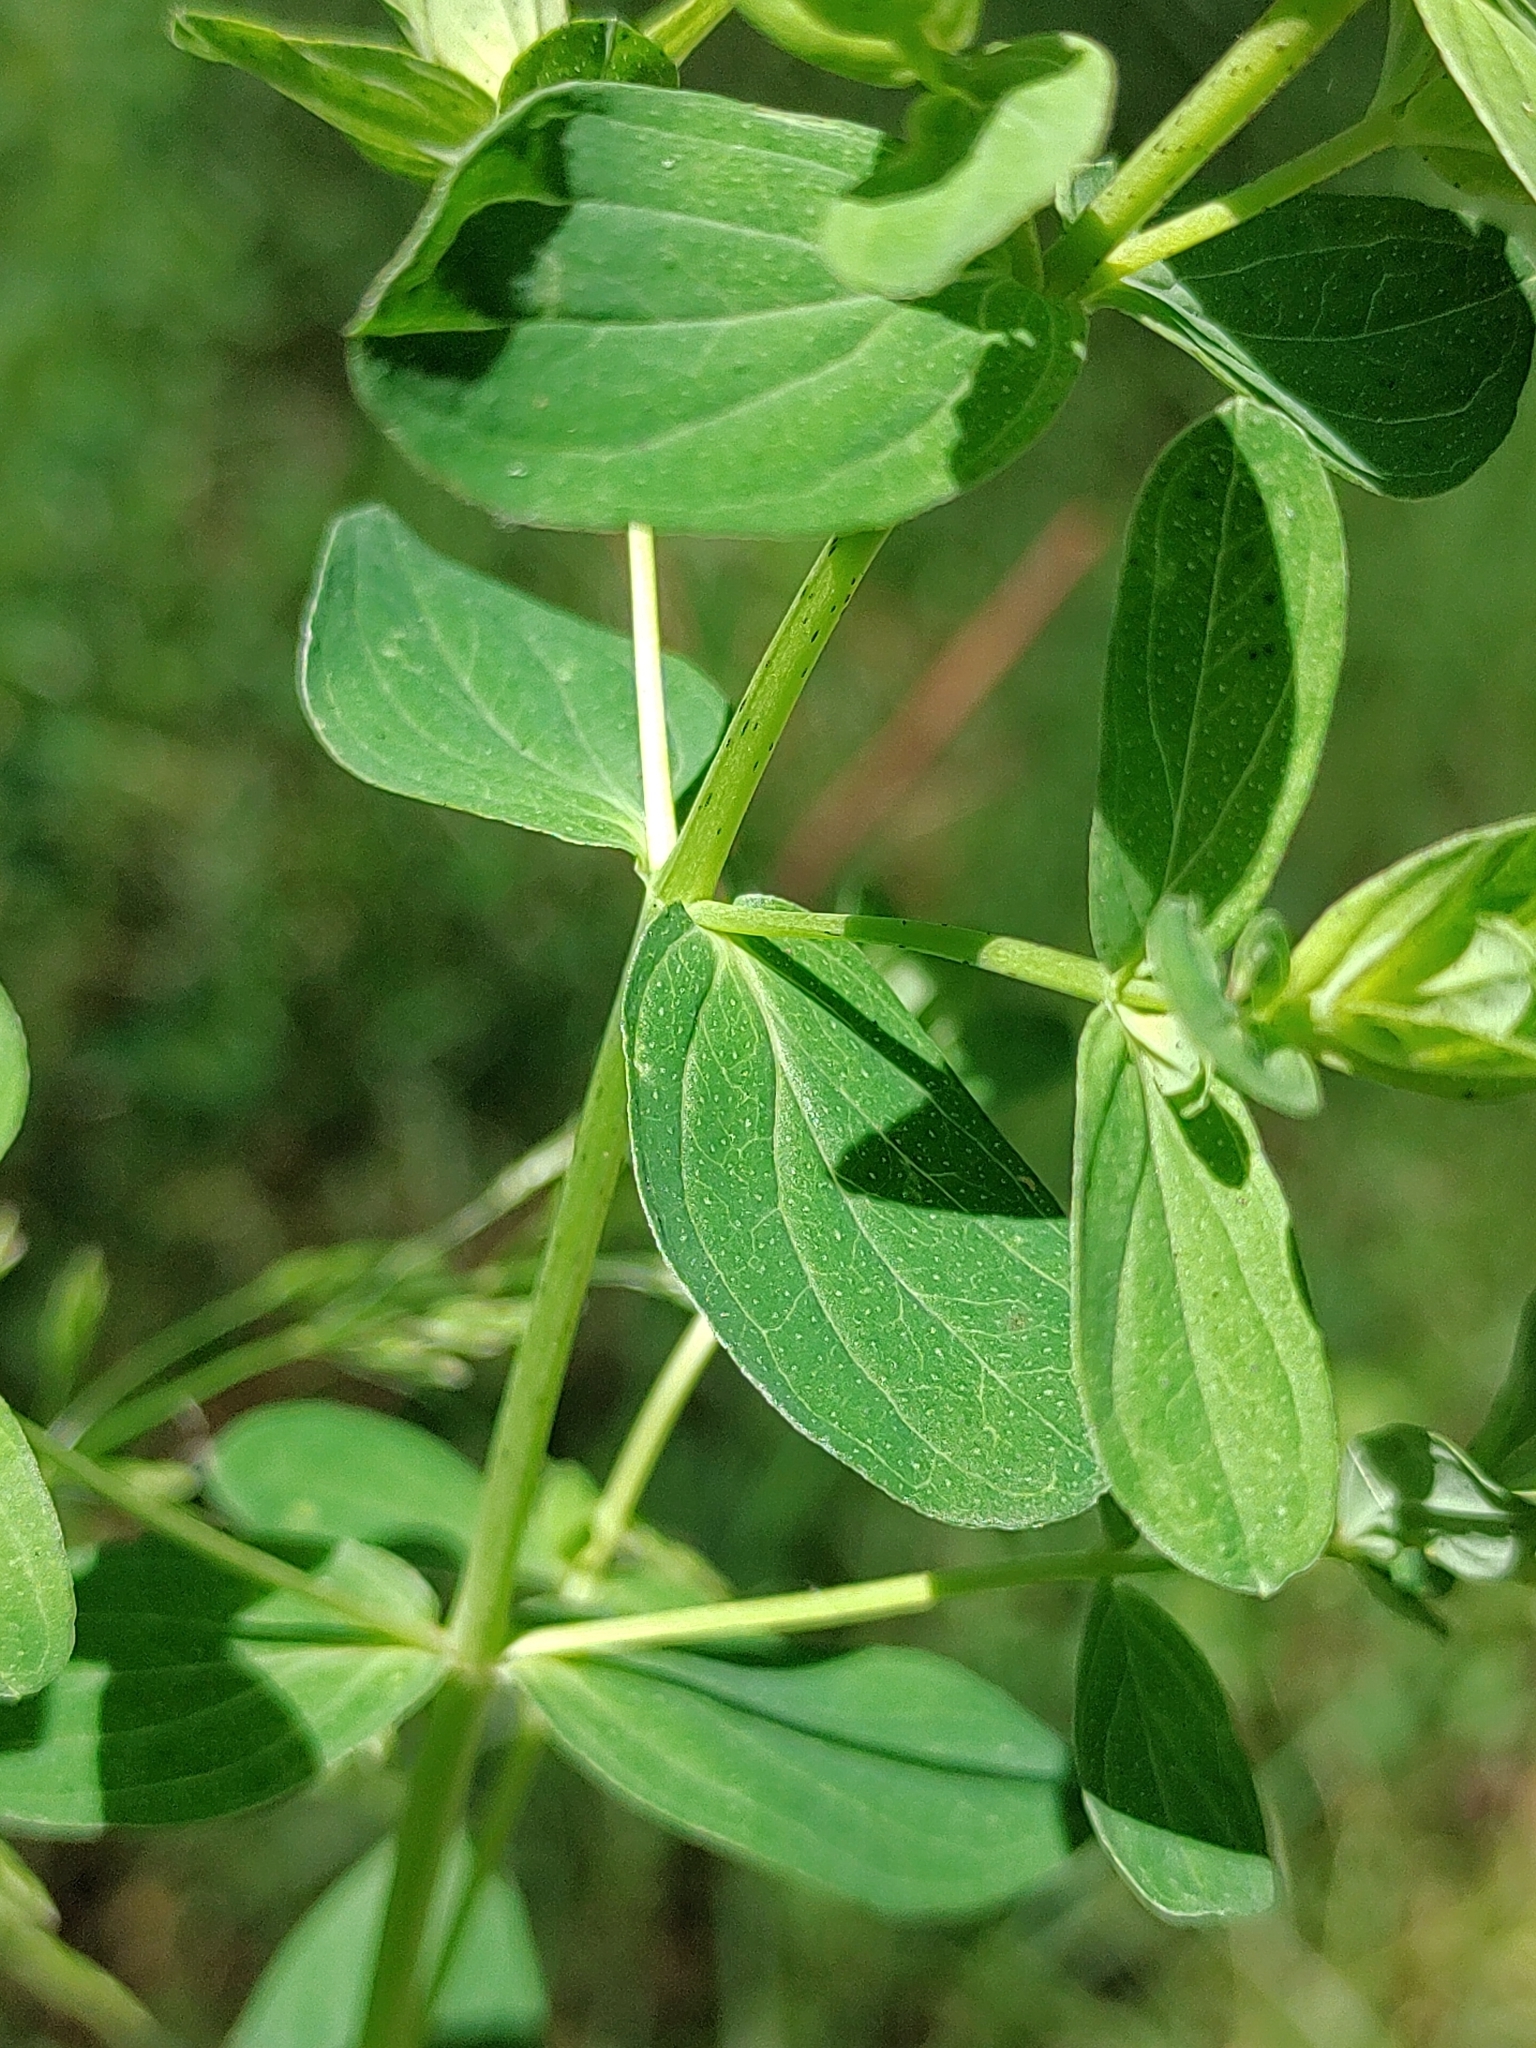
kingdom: Plantae
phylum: Tracheophyta
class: Magnoliopsida
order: Malpighiales
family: Hypericaceae
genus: Hypericum
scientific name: Hypericum perforatum
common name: Common st. johnswort
